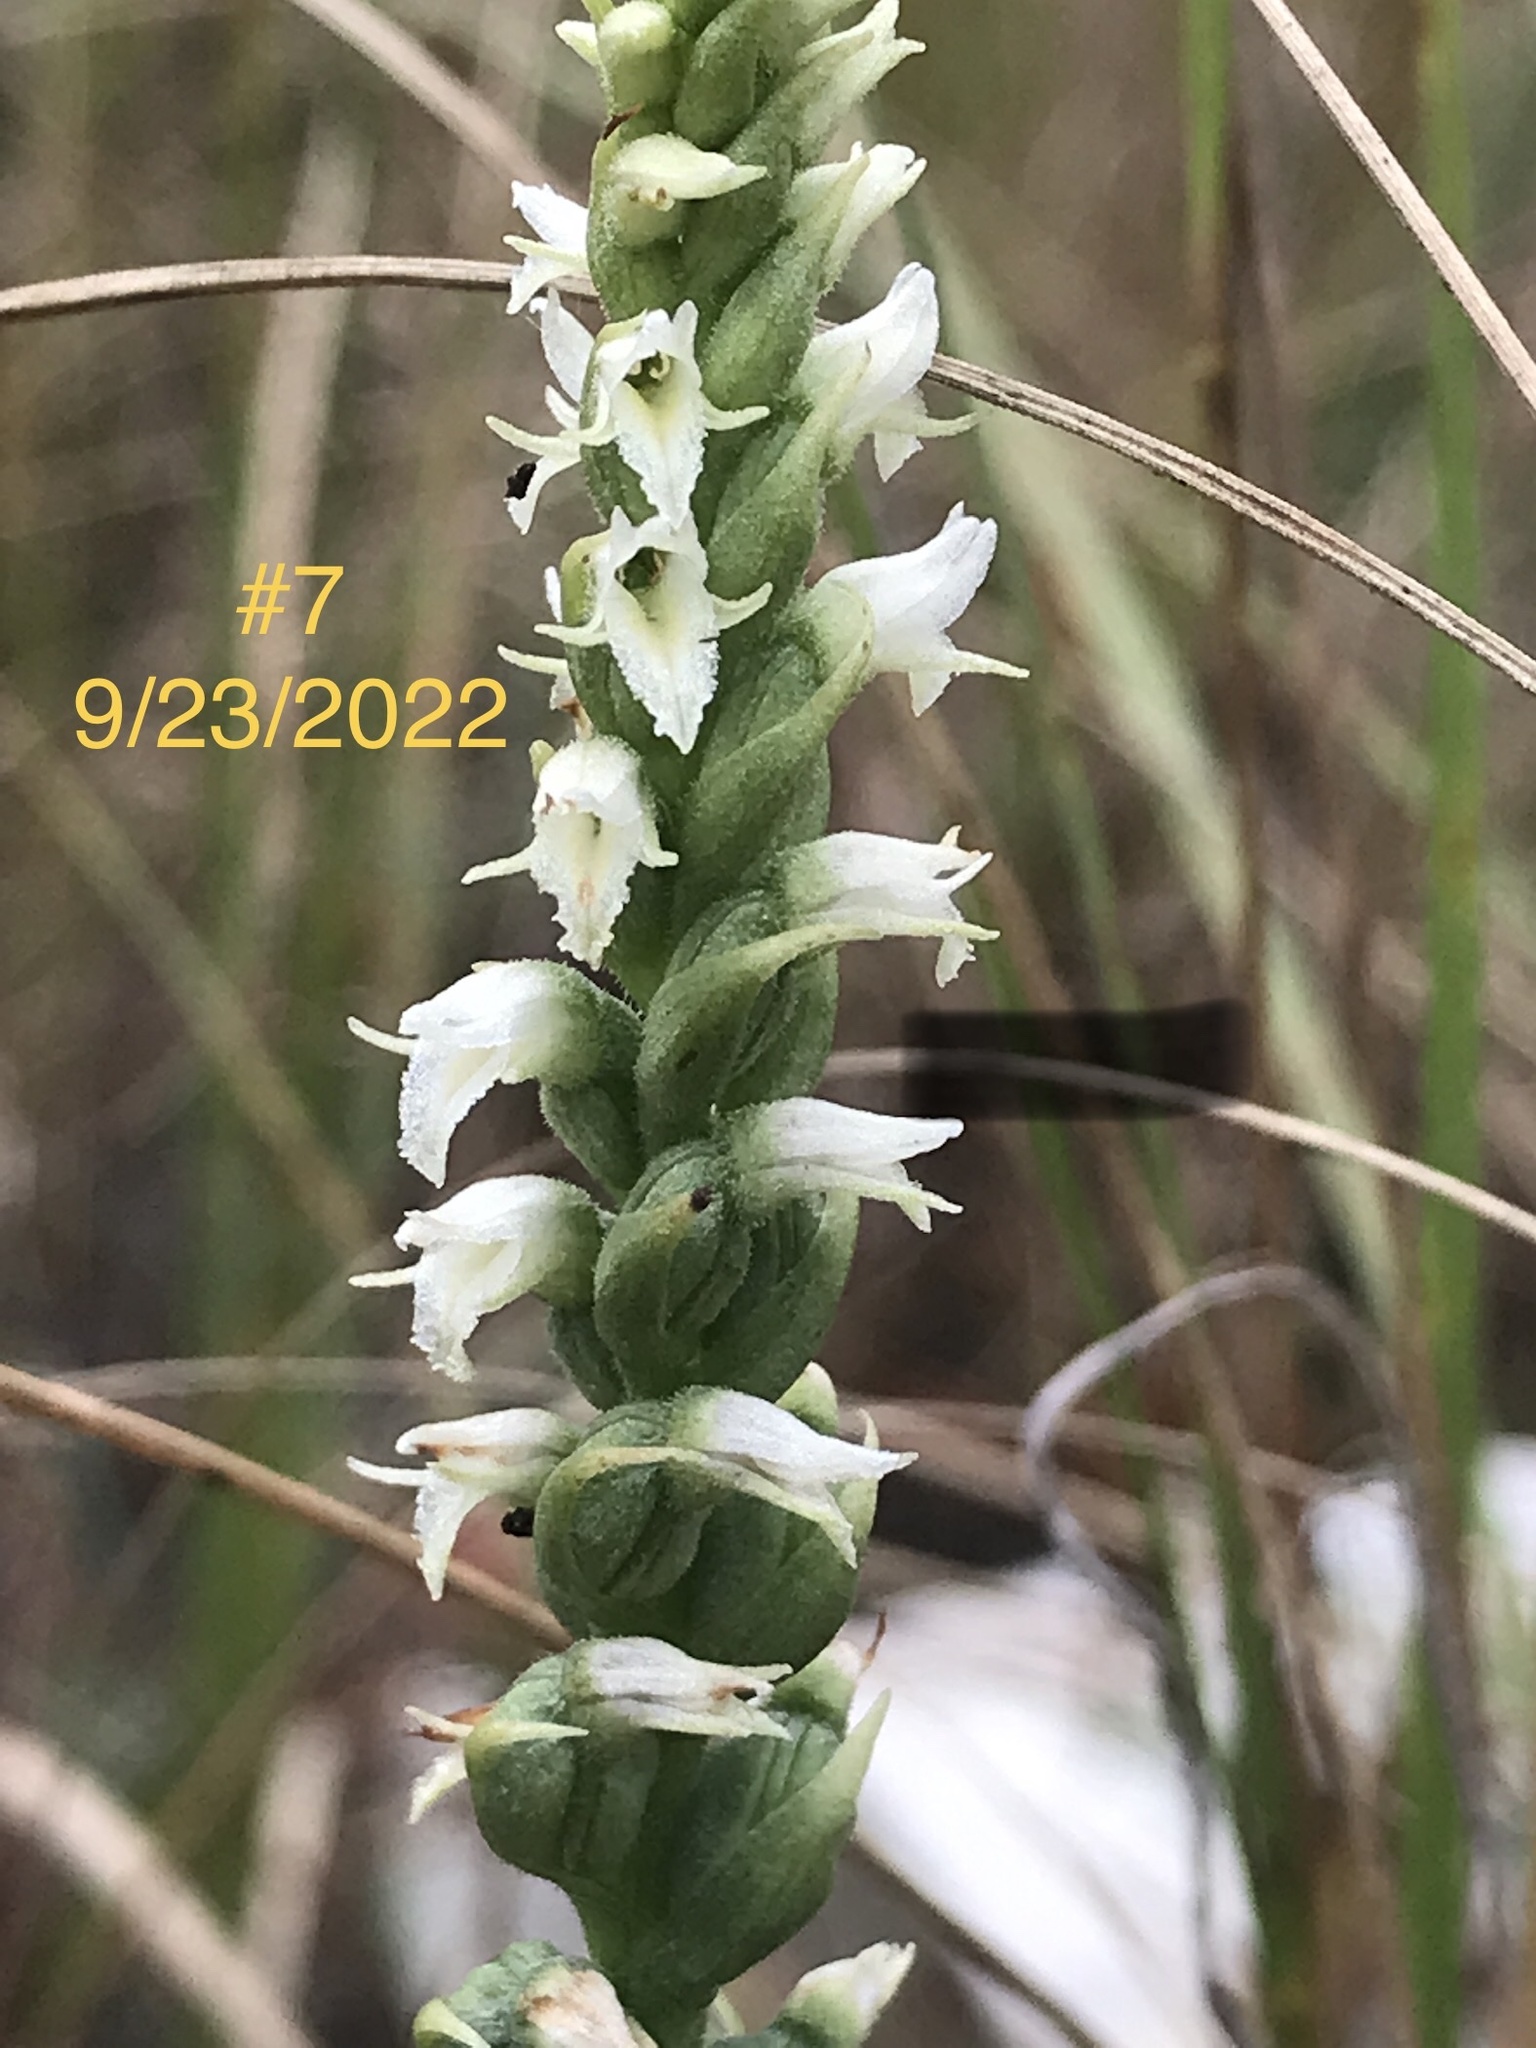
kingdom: Plantae
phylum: Tracheophyta
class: Liliopsida
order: Asparagales
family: Orchidaceae
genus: Spiranthes
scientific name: Spiranthes ovalis
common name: October ladies'-tresses
